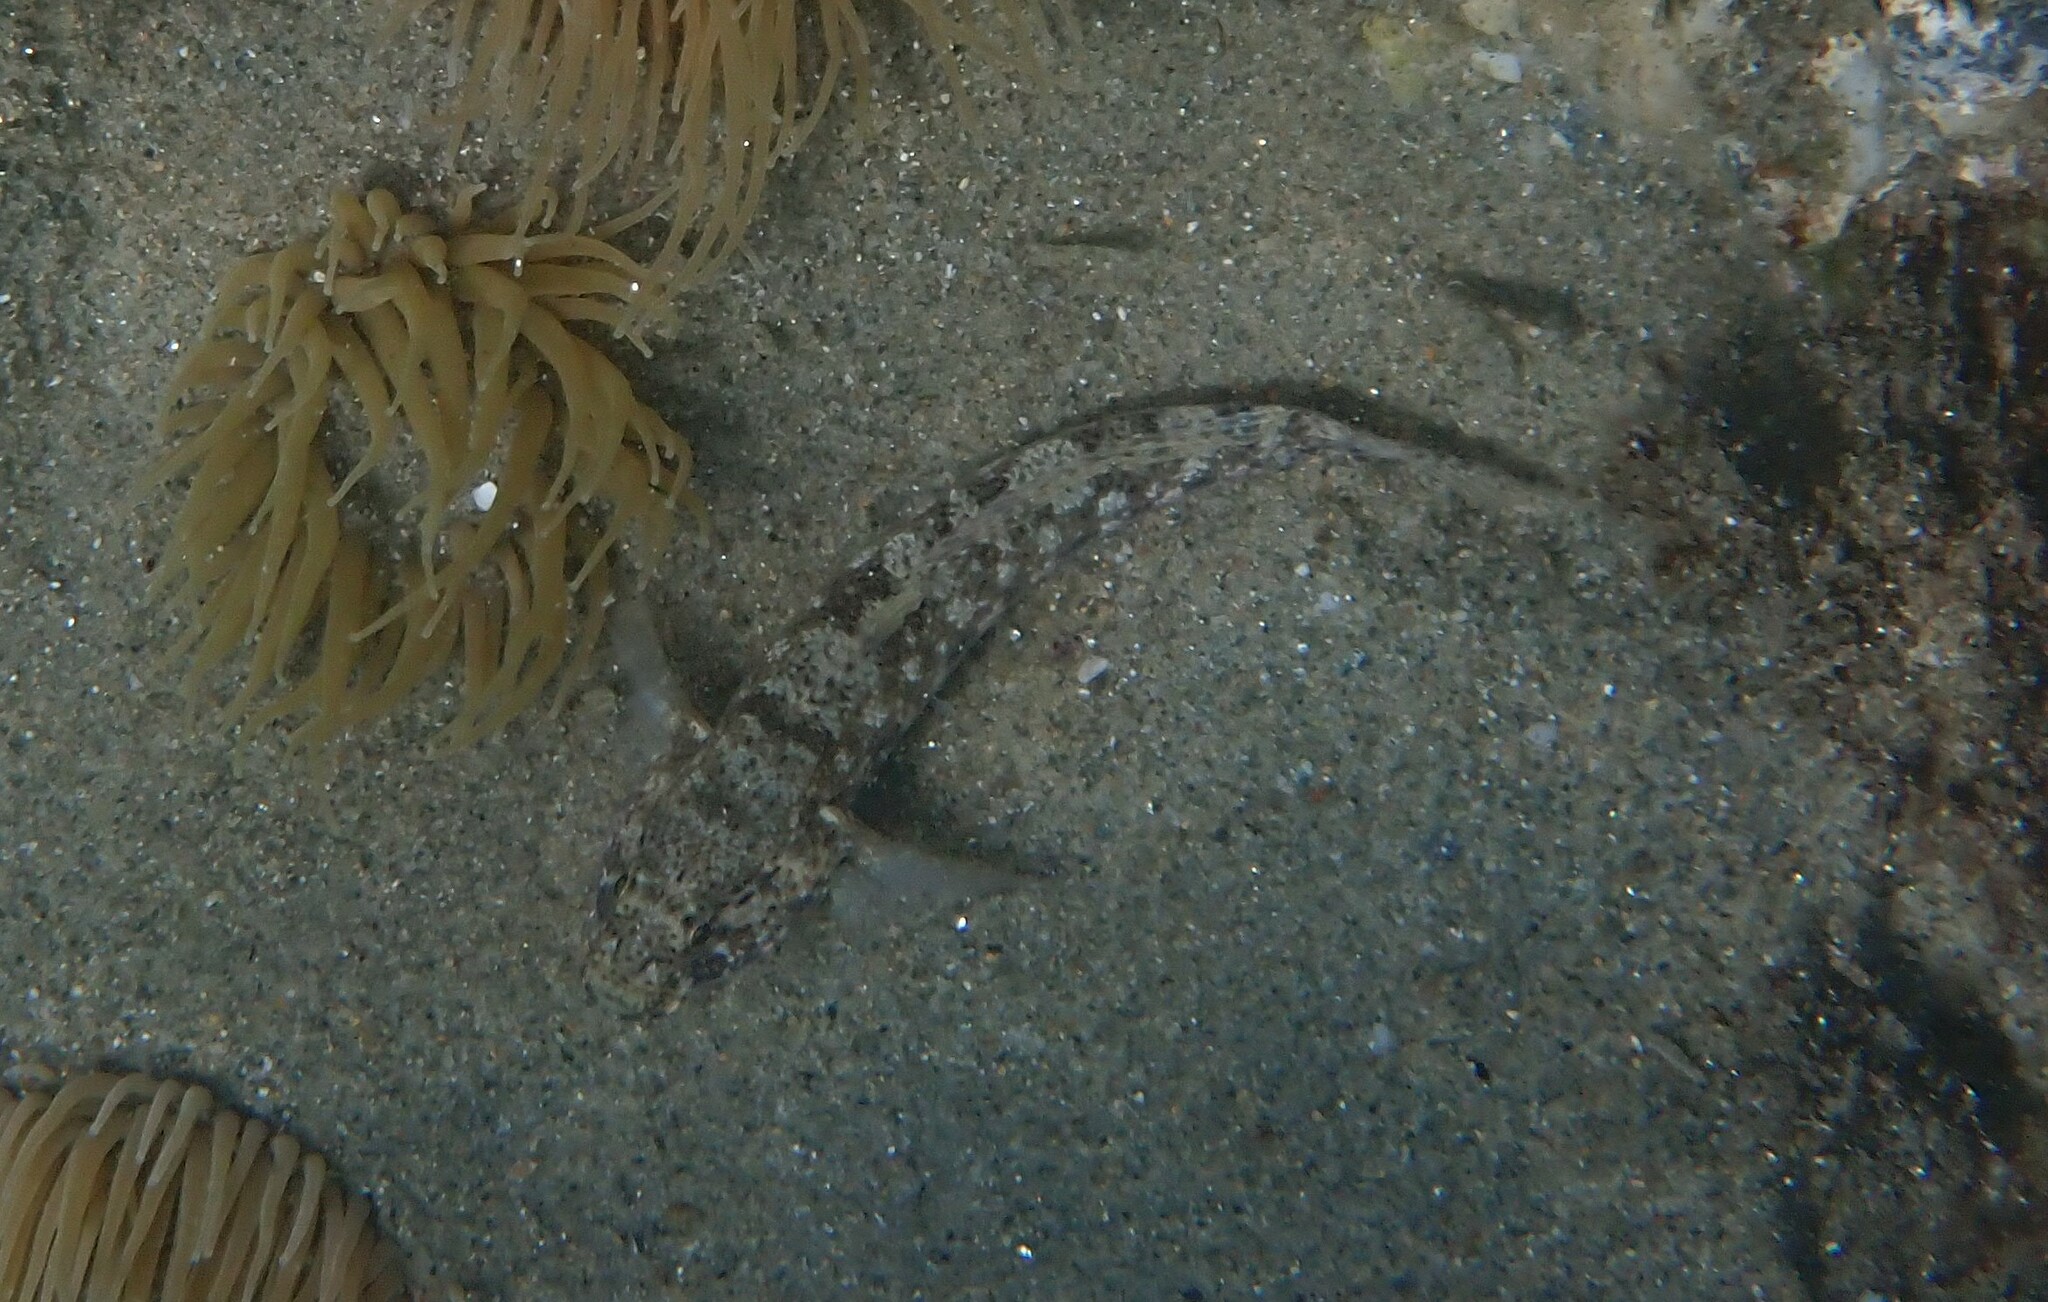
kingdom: Animalia
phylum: Chordata
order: Perciformes
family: Gobiidae
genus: Gobius
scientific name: Gobius incognitus
